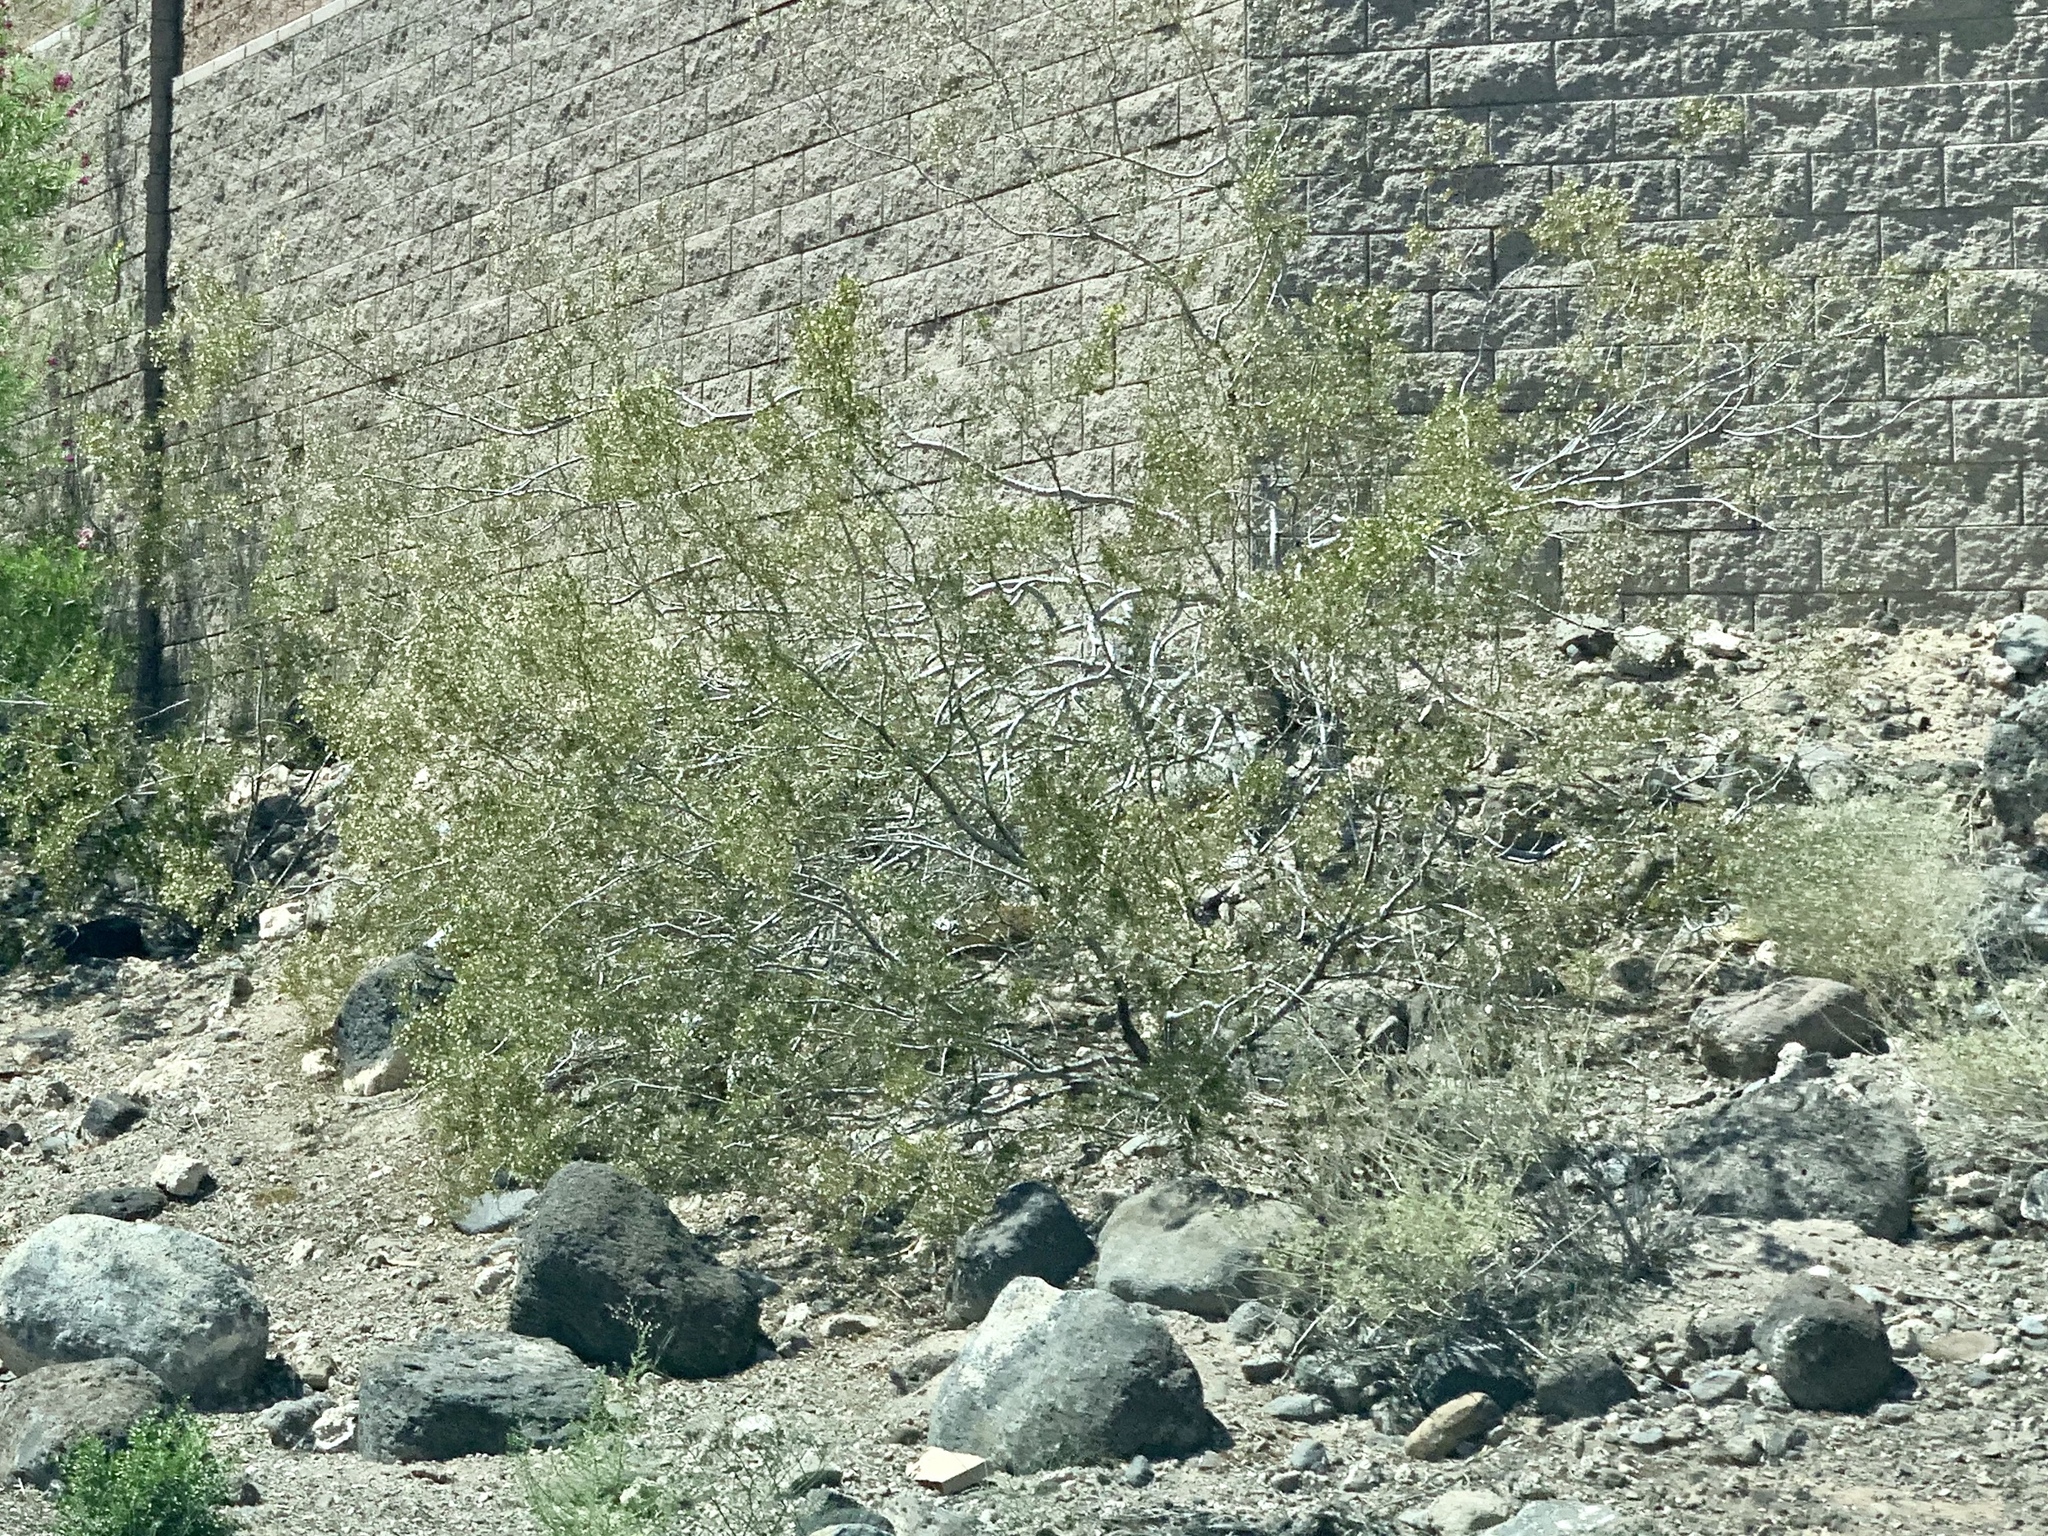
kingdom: Plantae
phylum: Tracheophyta
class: Magnoliopsida
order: Zygophyllales
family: Zygophyllaceae
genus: Larrea
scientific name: Larrea tridentata
